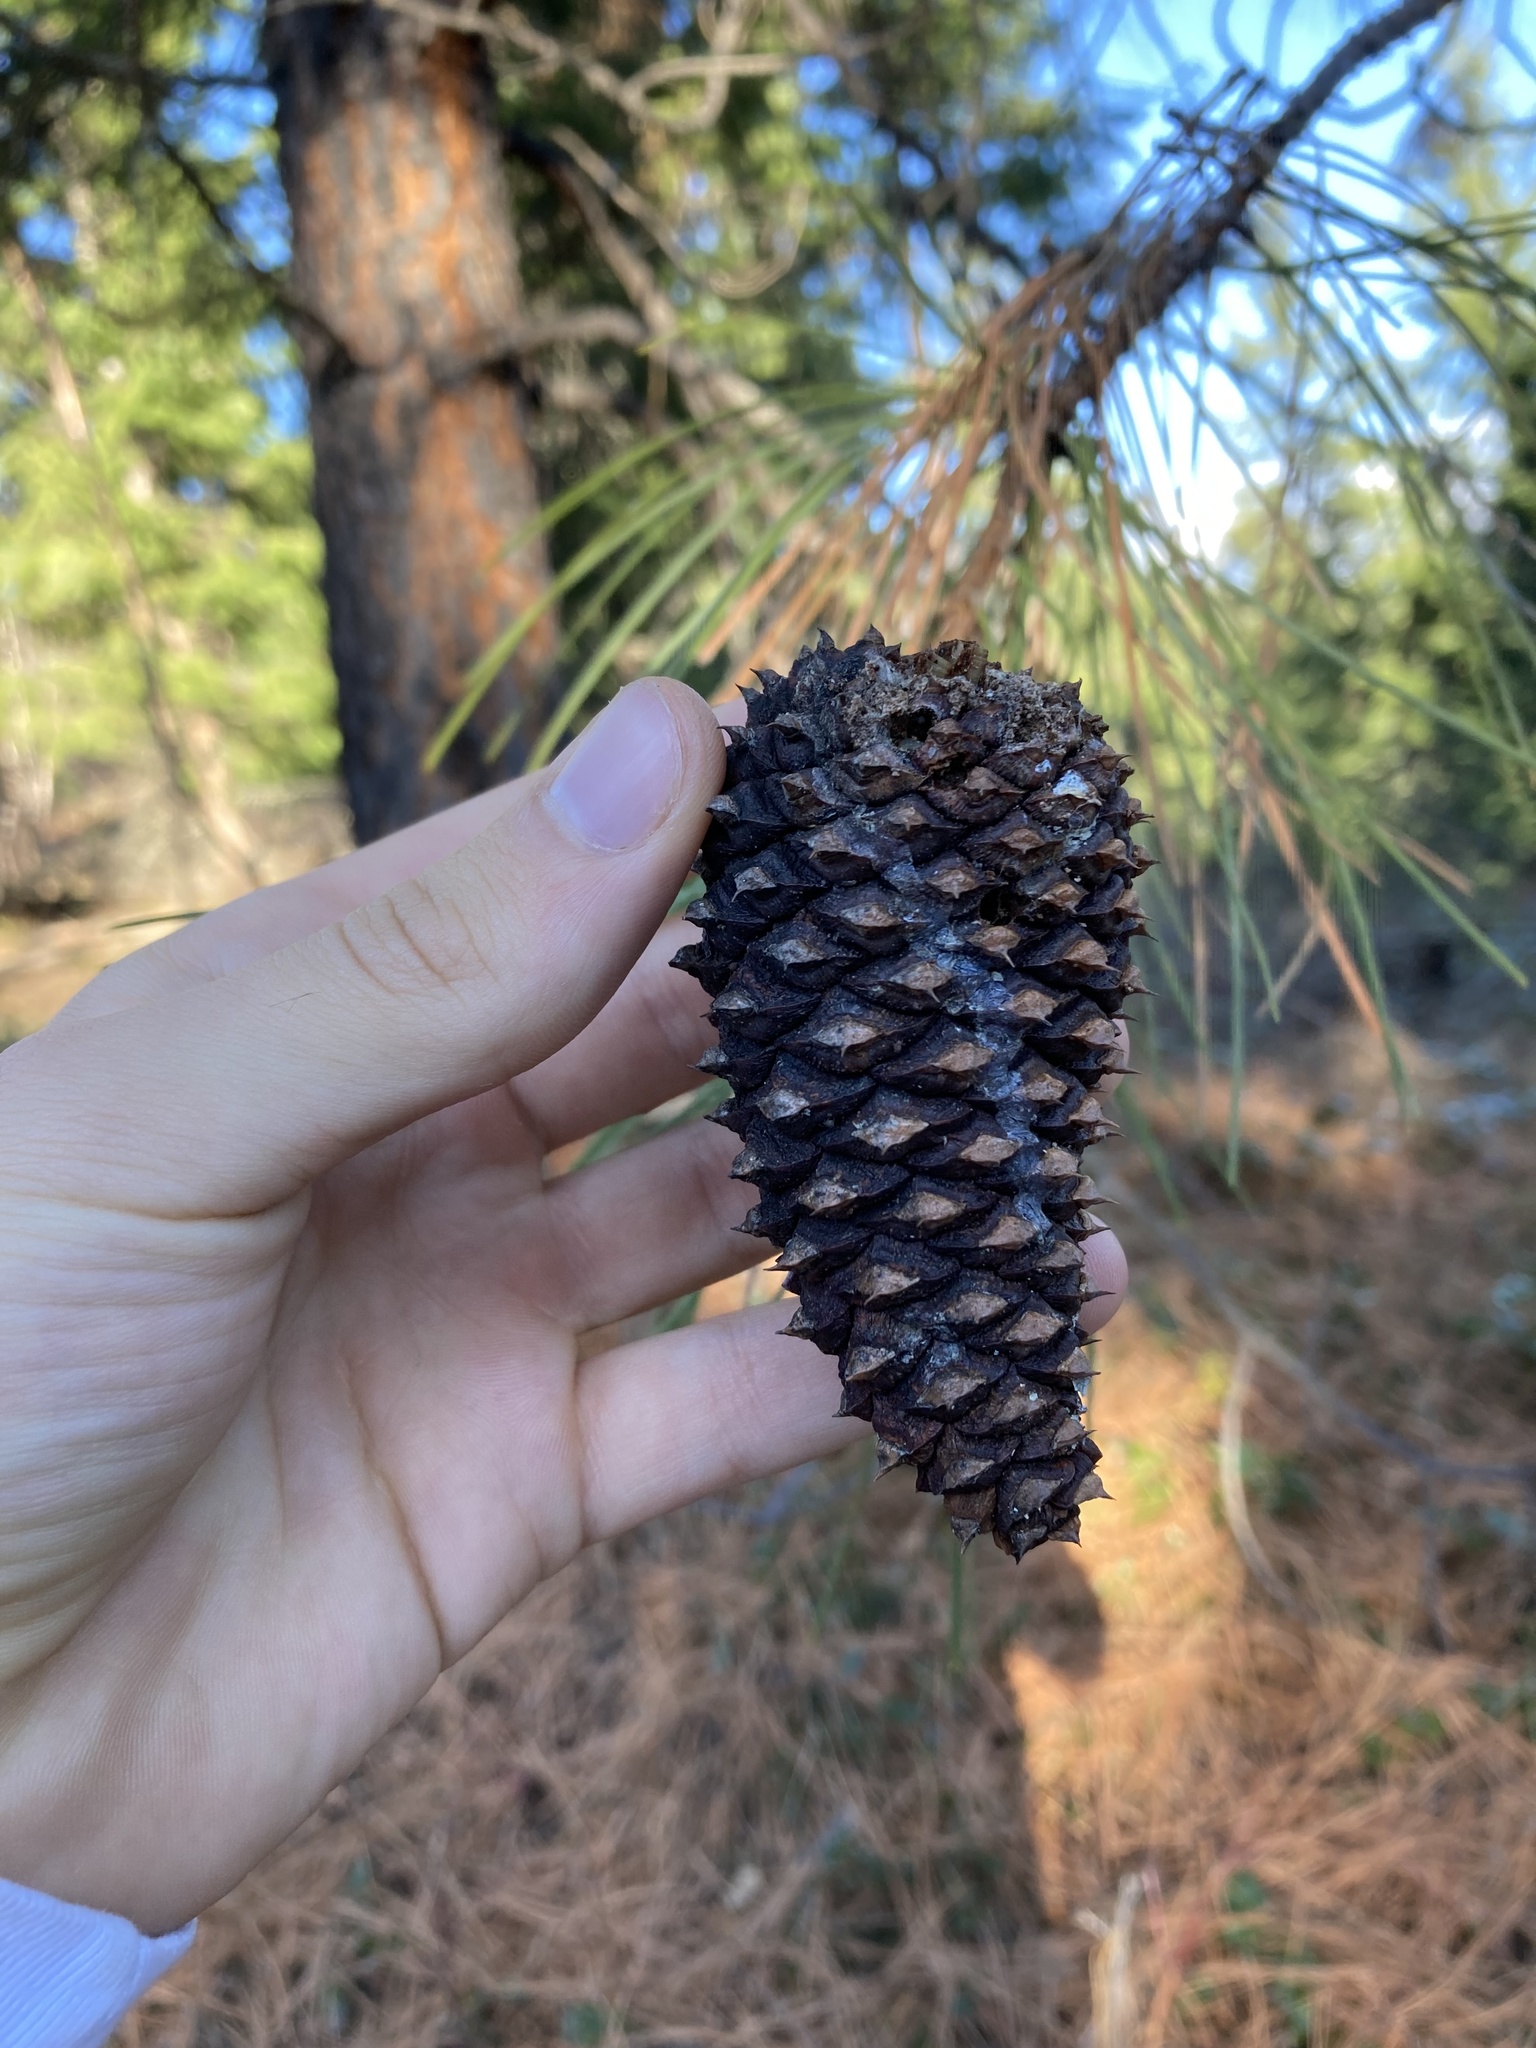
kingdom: Plantae
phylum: Tracheophyta
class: Pinopsida
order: Pinales
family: Pinaceae
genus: Pinus
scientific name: Pinus ponderosa
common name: Western yellow-pine
